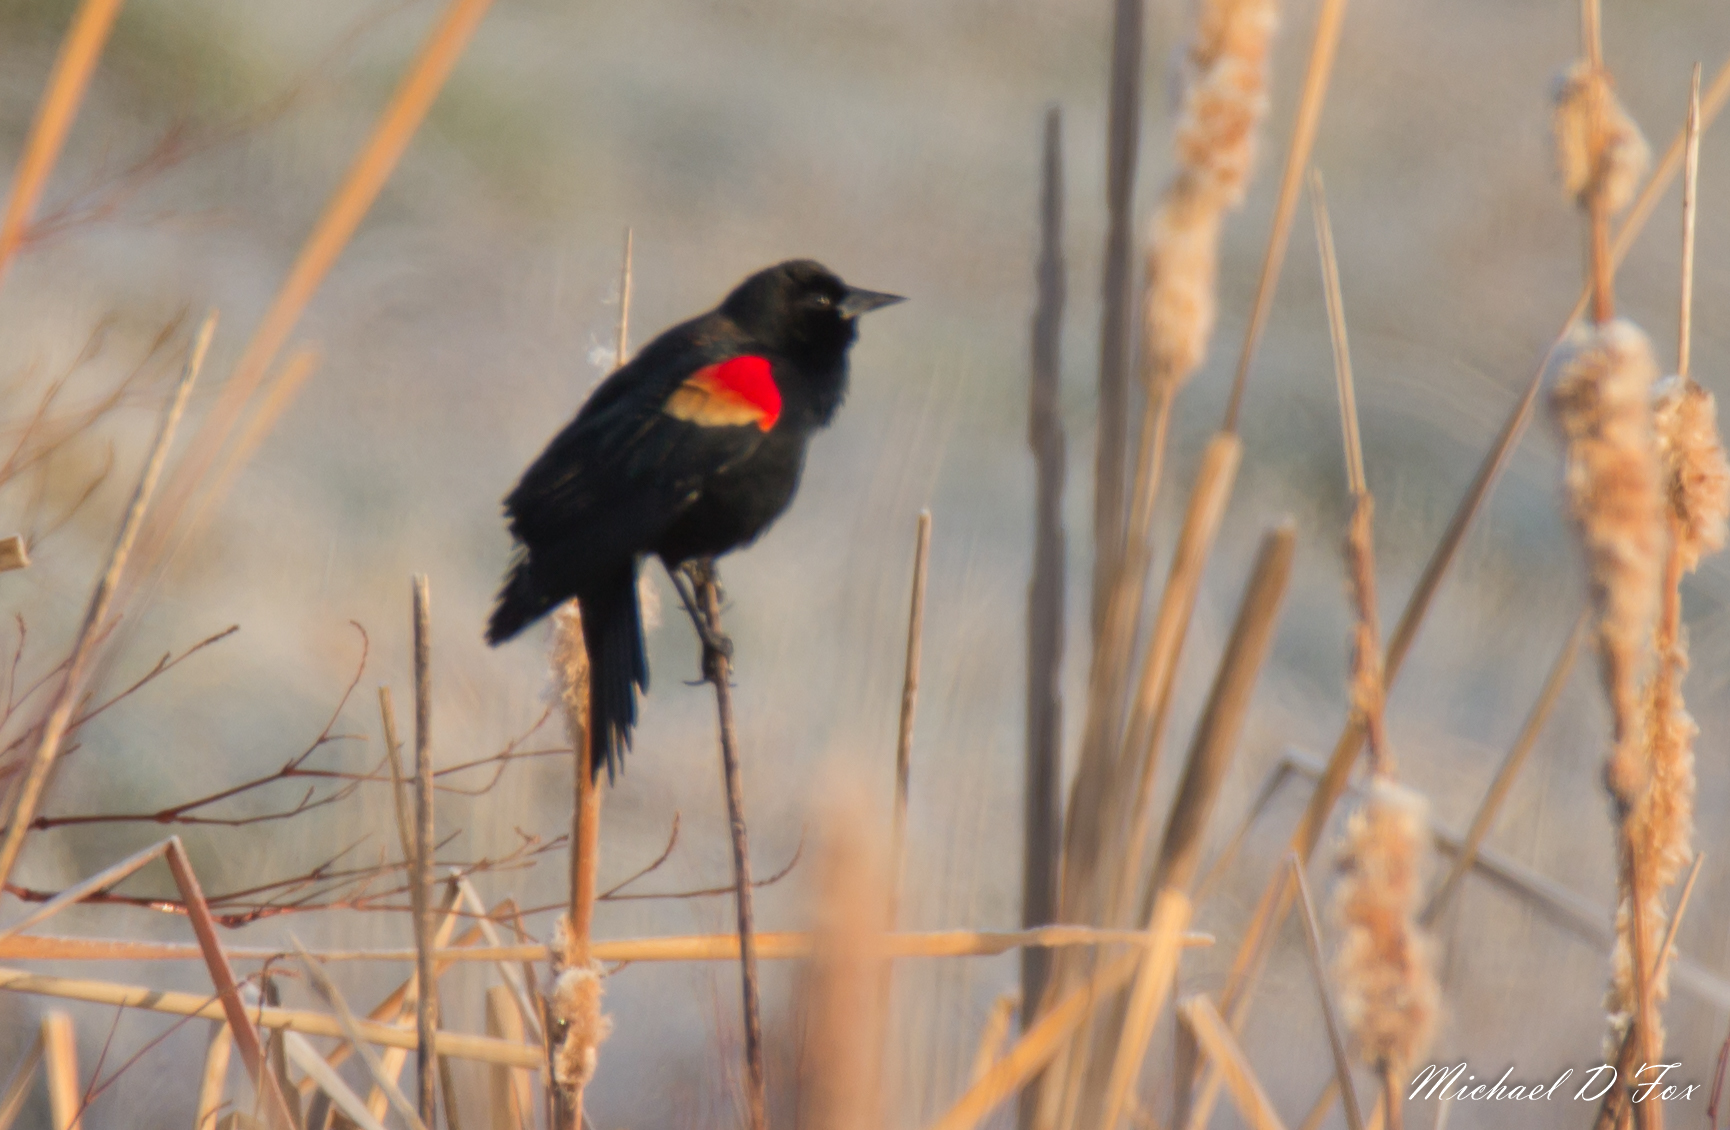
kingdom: Animalia
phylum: Chordata
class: Aves
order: Passeriformes
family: Icteridae
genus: Agelaius
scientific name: Agelaius phoeniceus
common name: Red-winged blackbird
